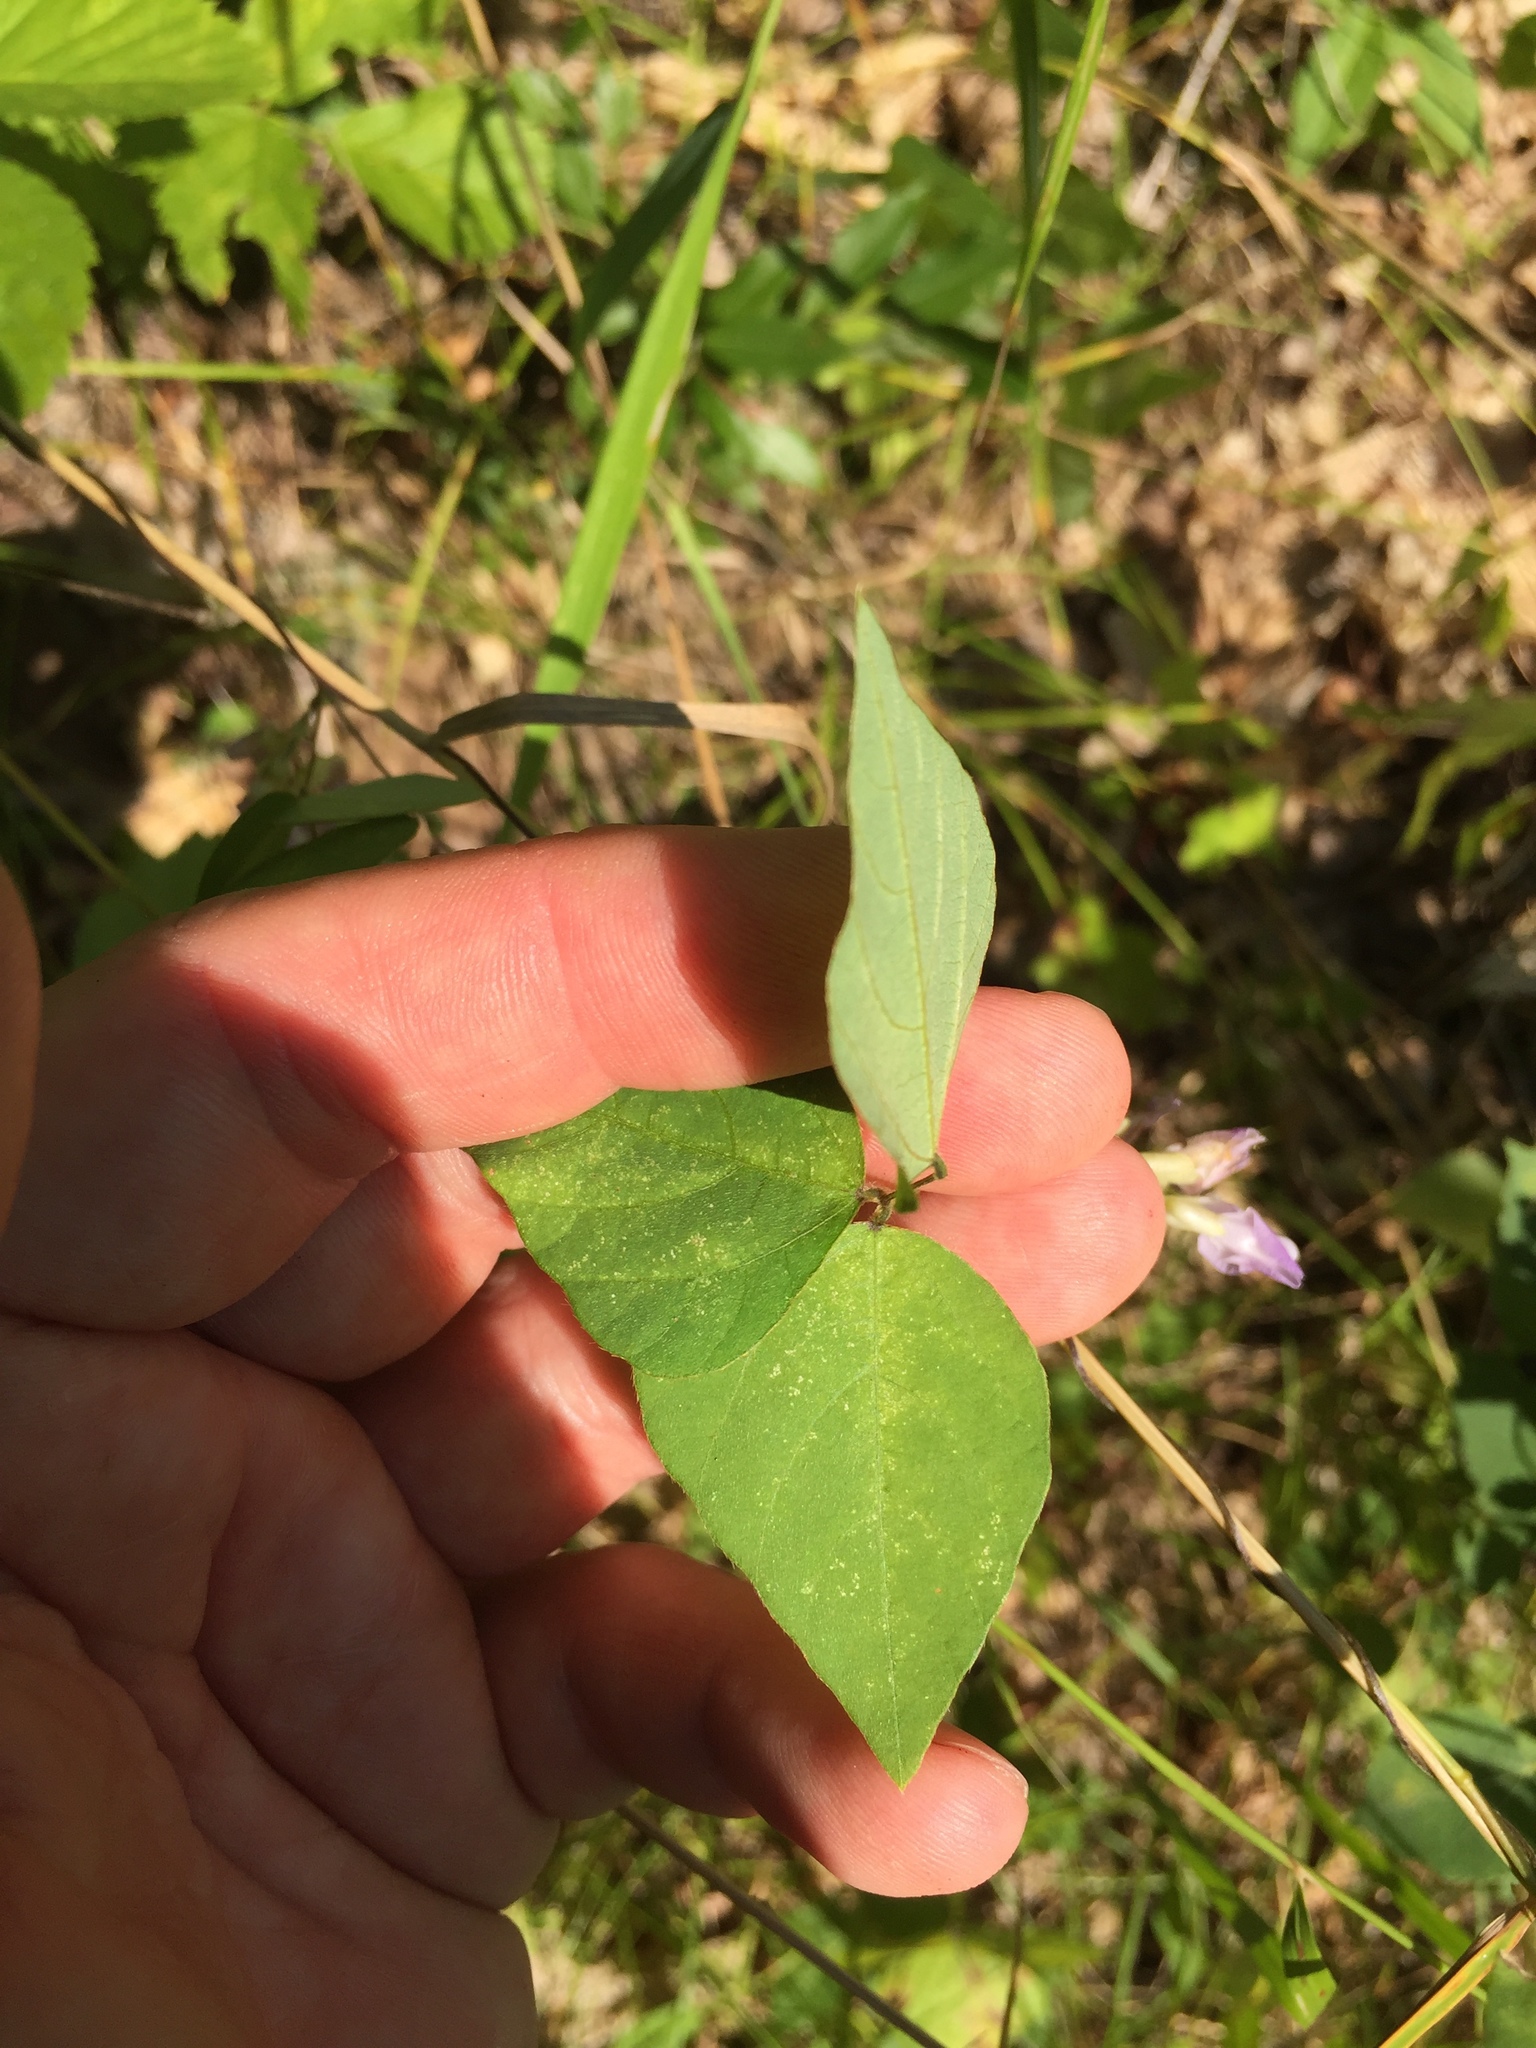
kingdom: Plantae
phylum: Tracheophyta
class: Magnoliopsida
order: Fabales
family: Fabaceae
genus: Amphicarpaea
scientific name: Amphicarpaea bracteata
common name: American hog peanut
